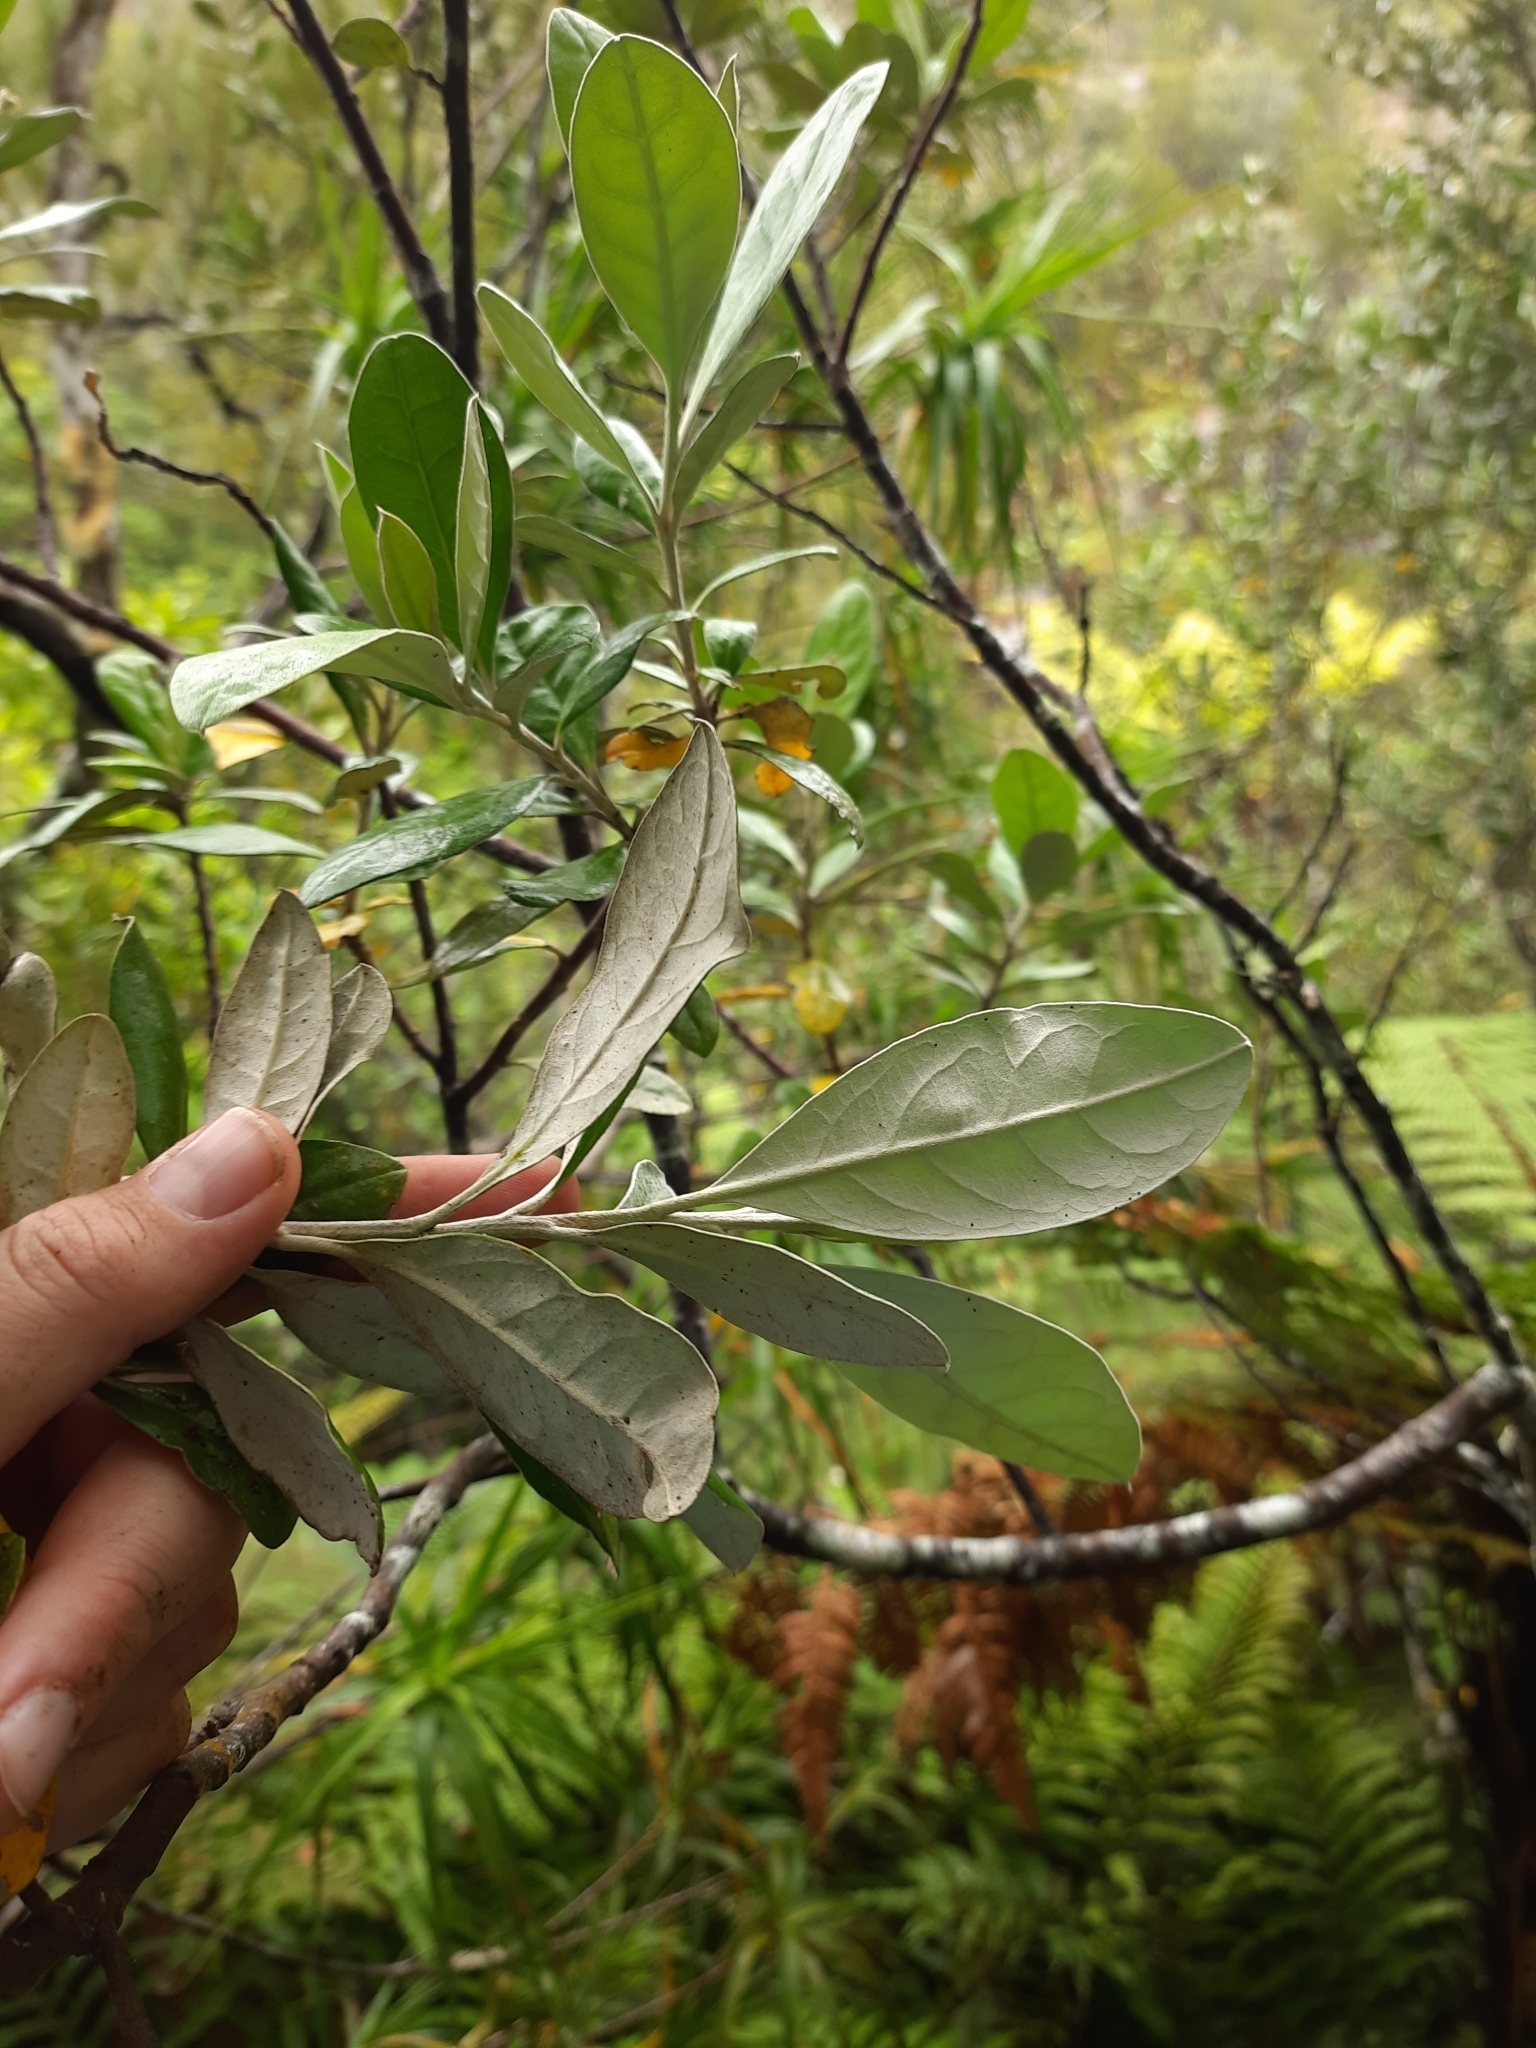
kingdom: Plantae
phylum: Tracheophyta
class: Magnoliopsida
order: Asterales
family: Argophyllaceae
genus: Corokia
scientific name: Corokia macrocarpa
